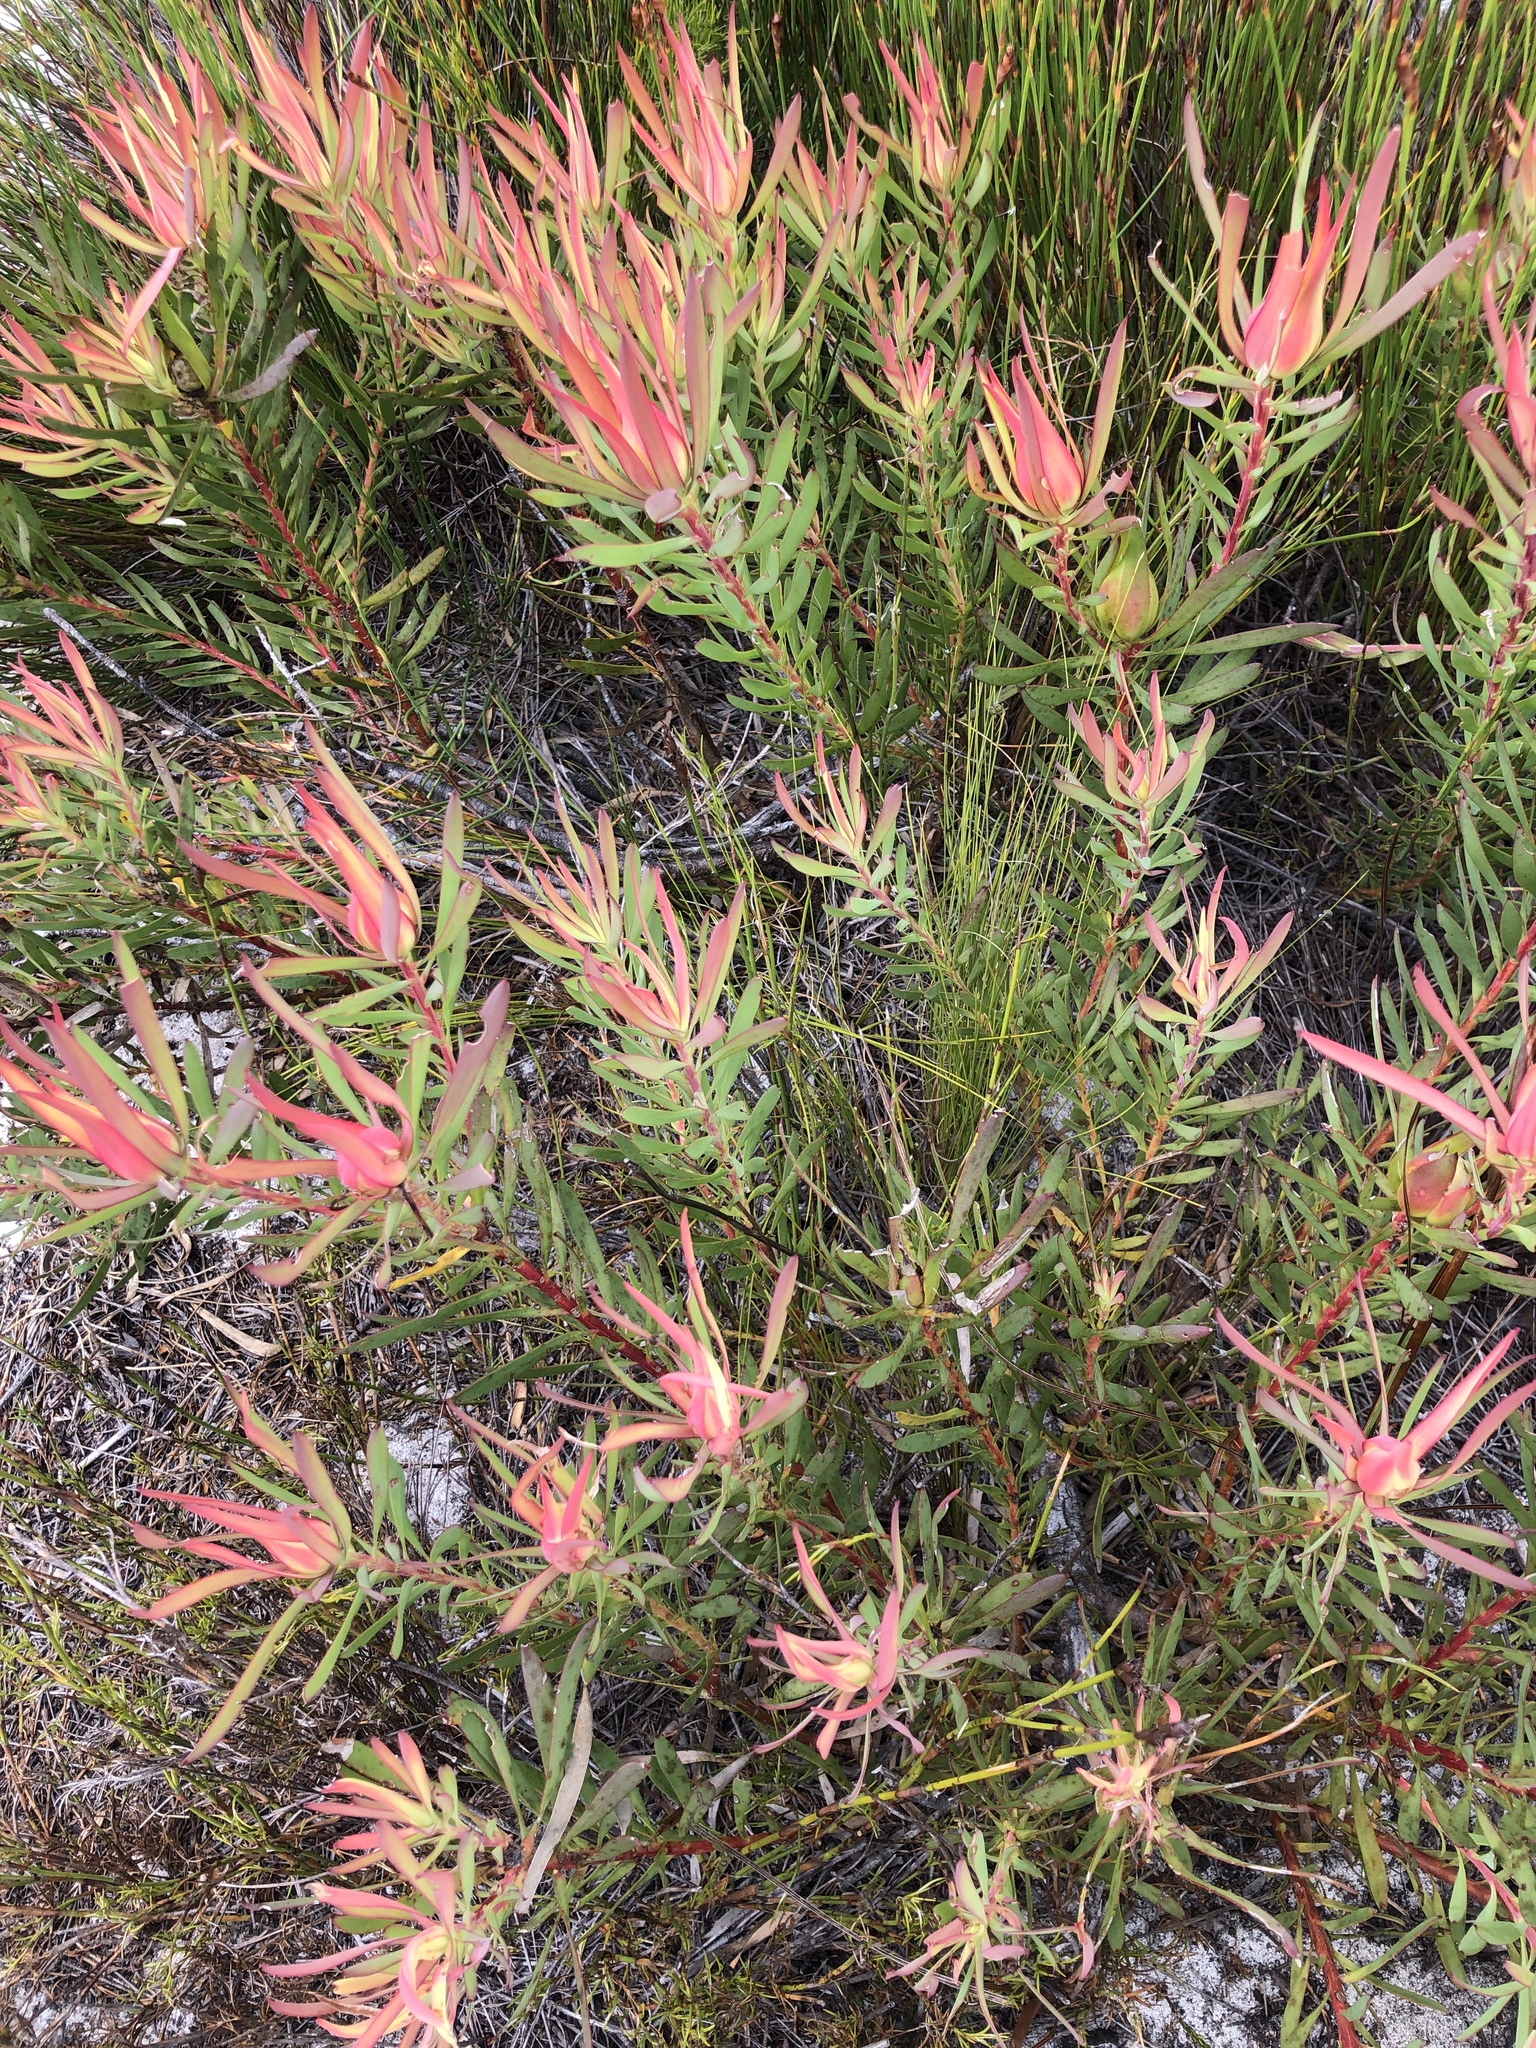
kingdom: Plantae
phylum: Tracheophyta
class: Magnoliopsida
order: Proteales
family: Proteaceae
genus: Leucadendron
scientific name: Leucadendron salignum
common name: Common sunshine conebush
